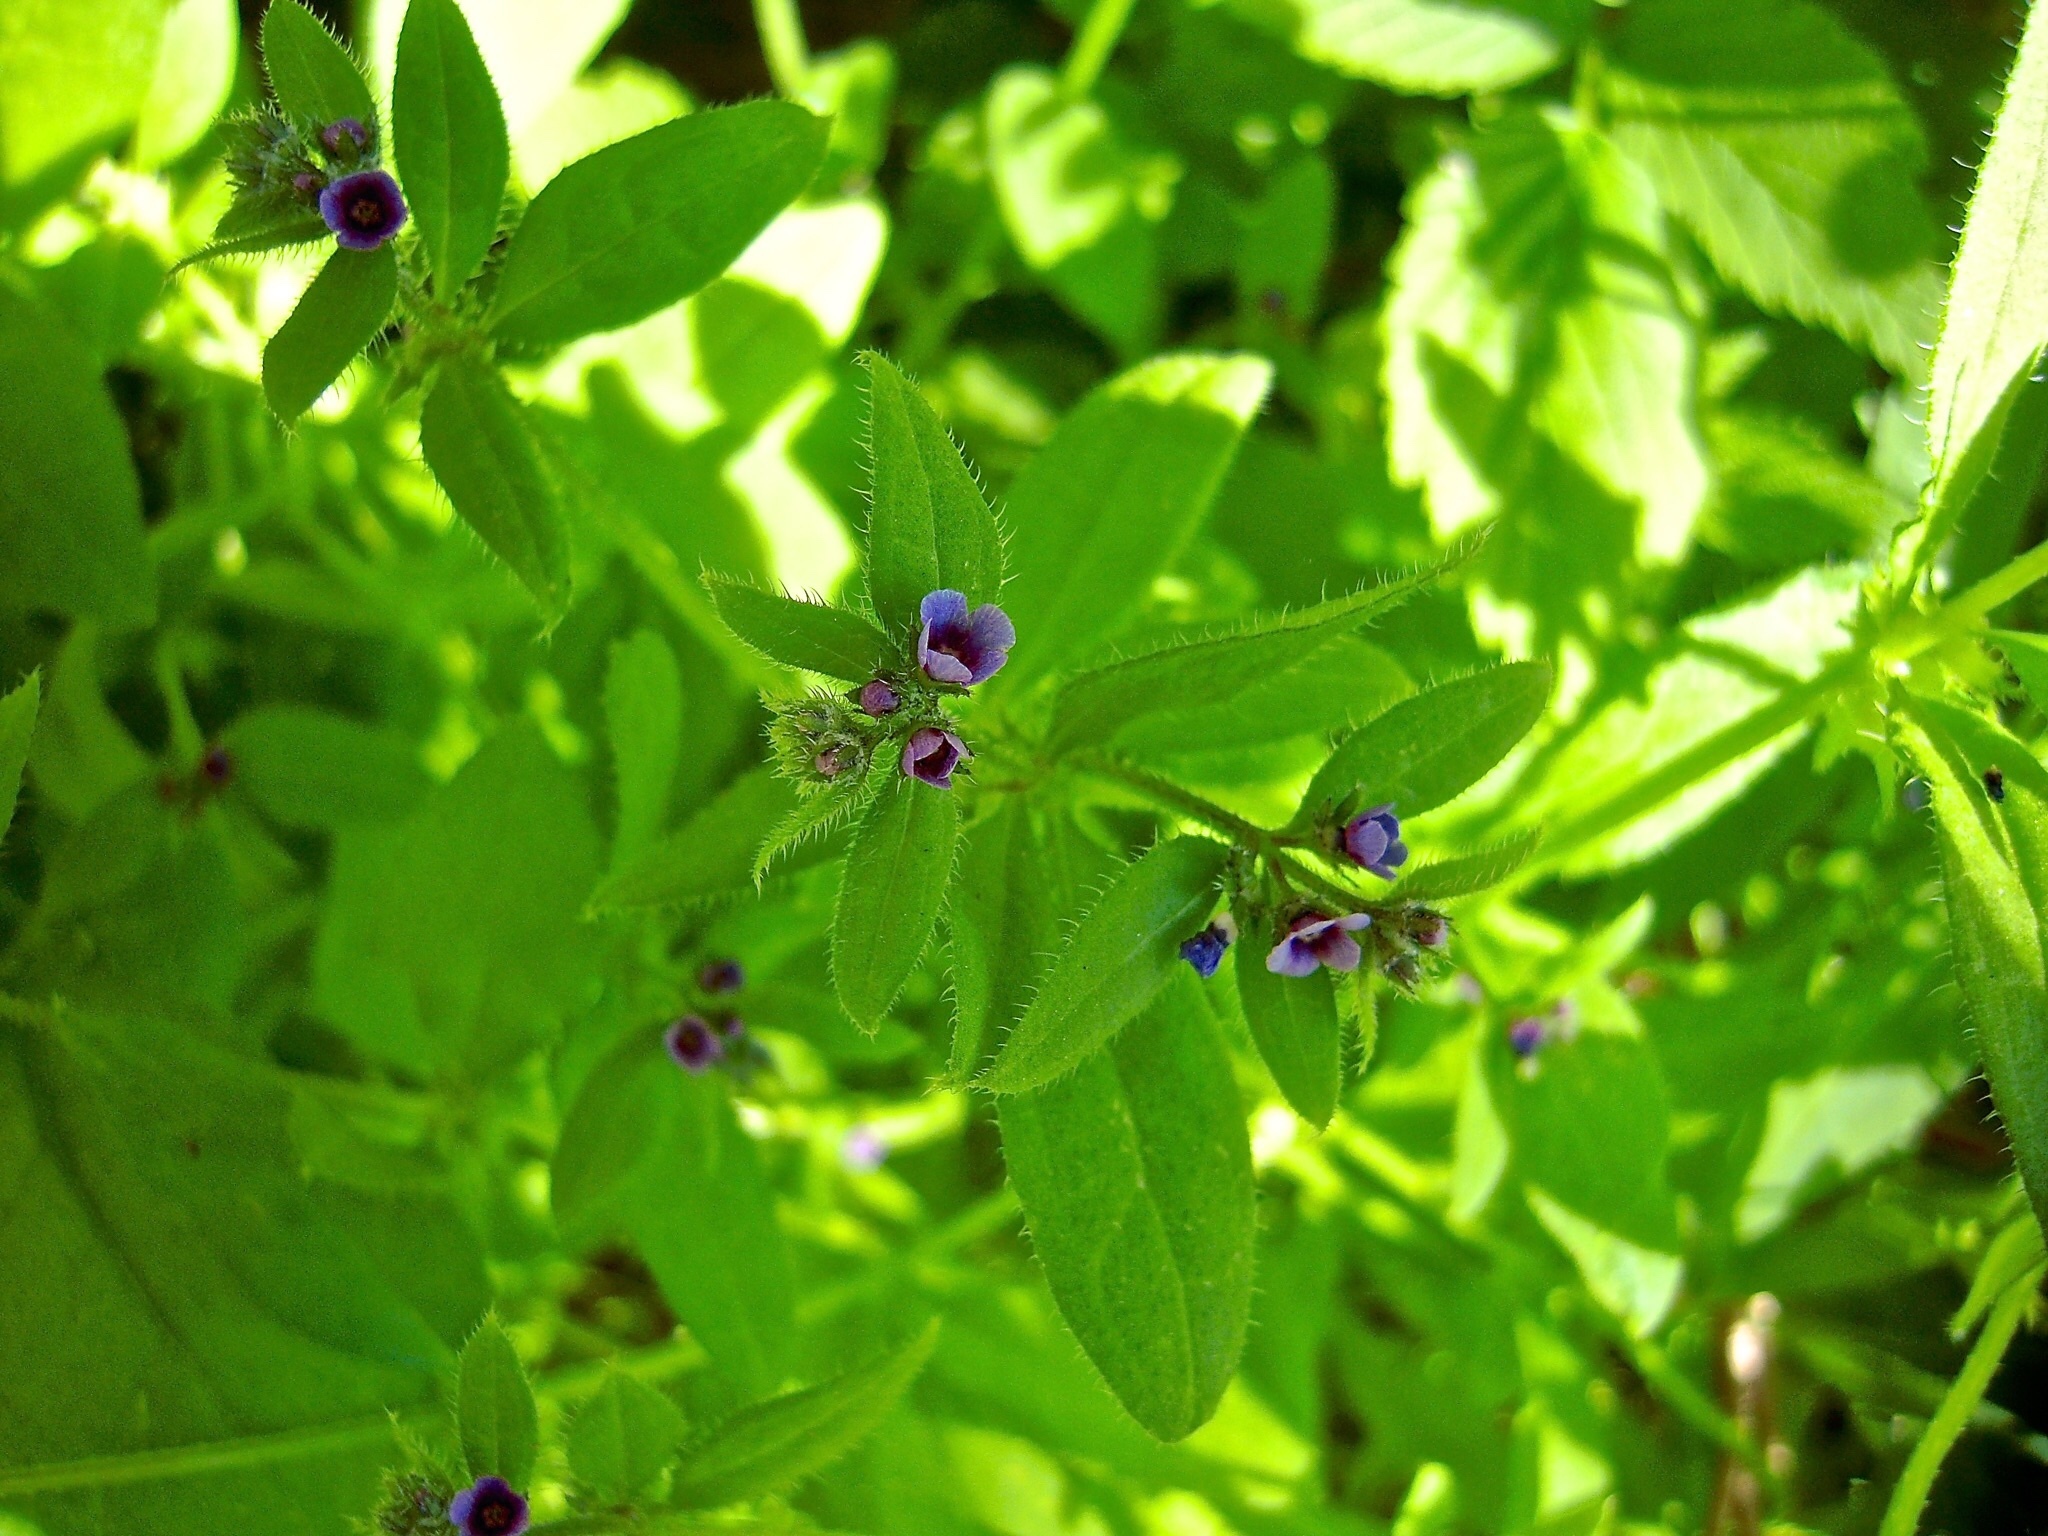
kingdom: Plantae
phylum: Tracheophyta
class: Magnoliopsida
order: Boraginales
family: Boraginaceae
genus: Asperugo
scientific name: Asperugo procumbens
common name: Madwort
